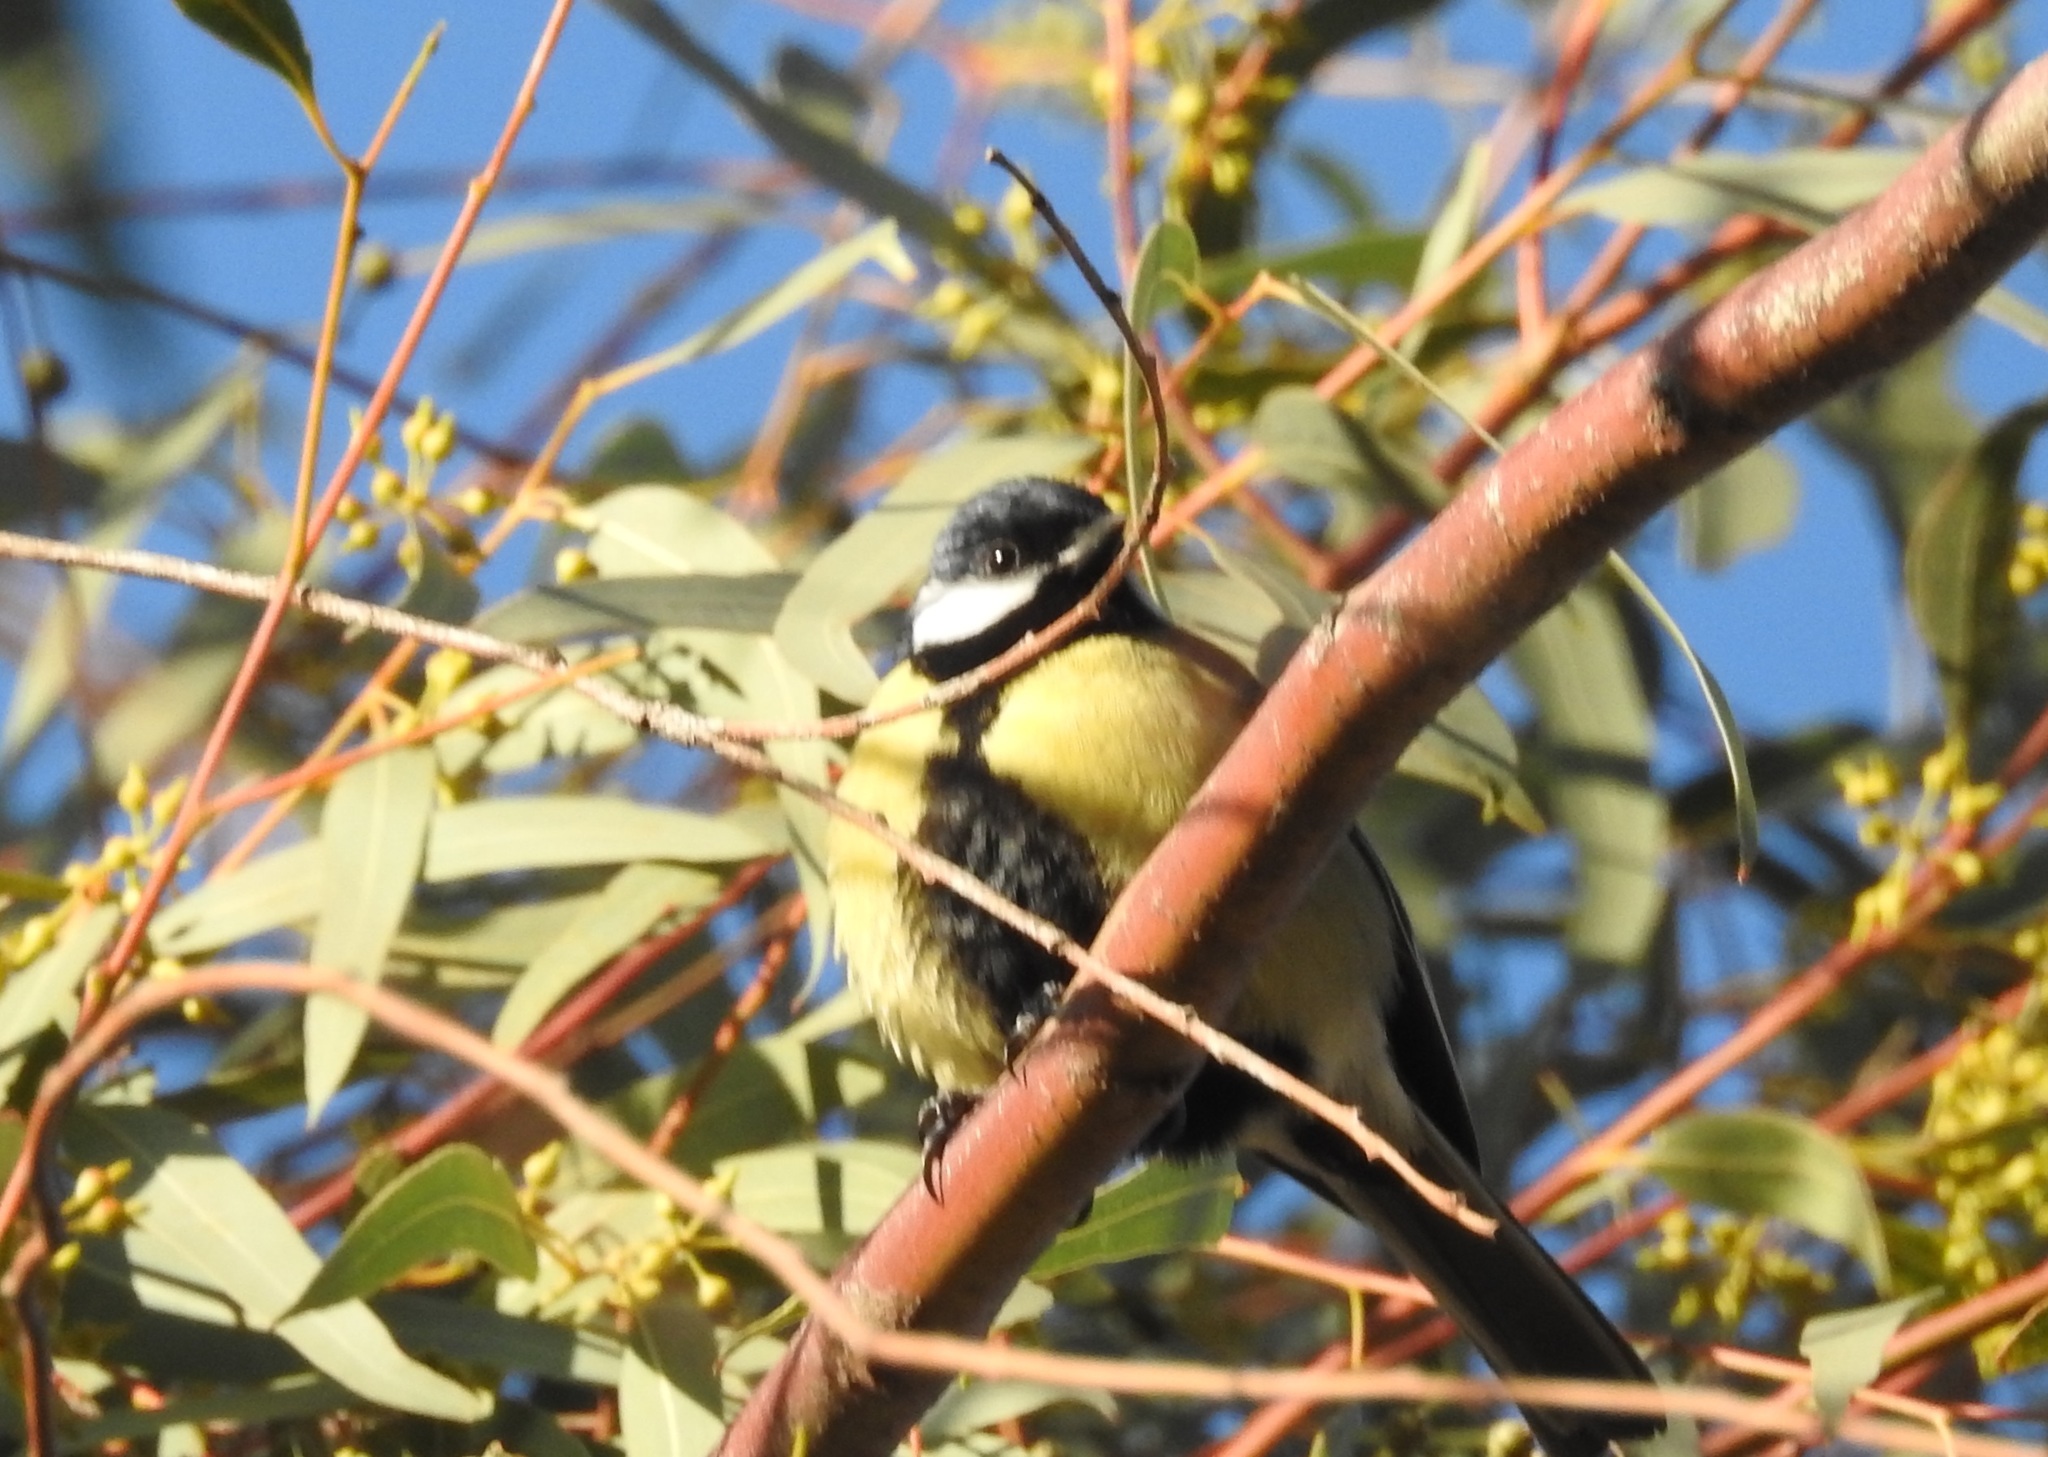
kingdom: Animalia
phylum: Chordata
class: Aves
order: Passeriformes
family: Paridae
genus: Parus
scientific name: Parus major
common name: Great tit
